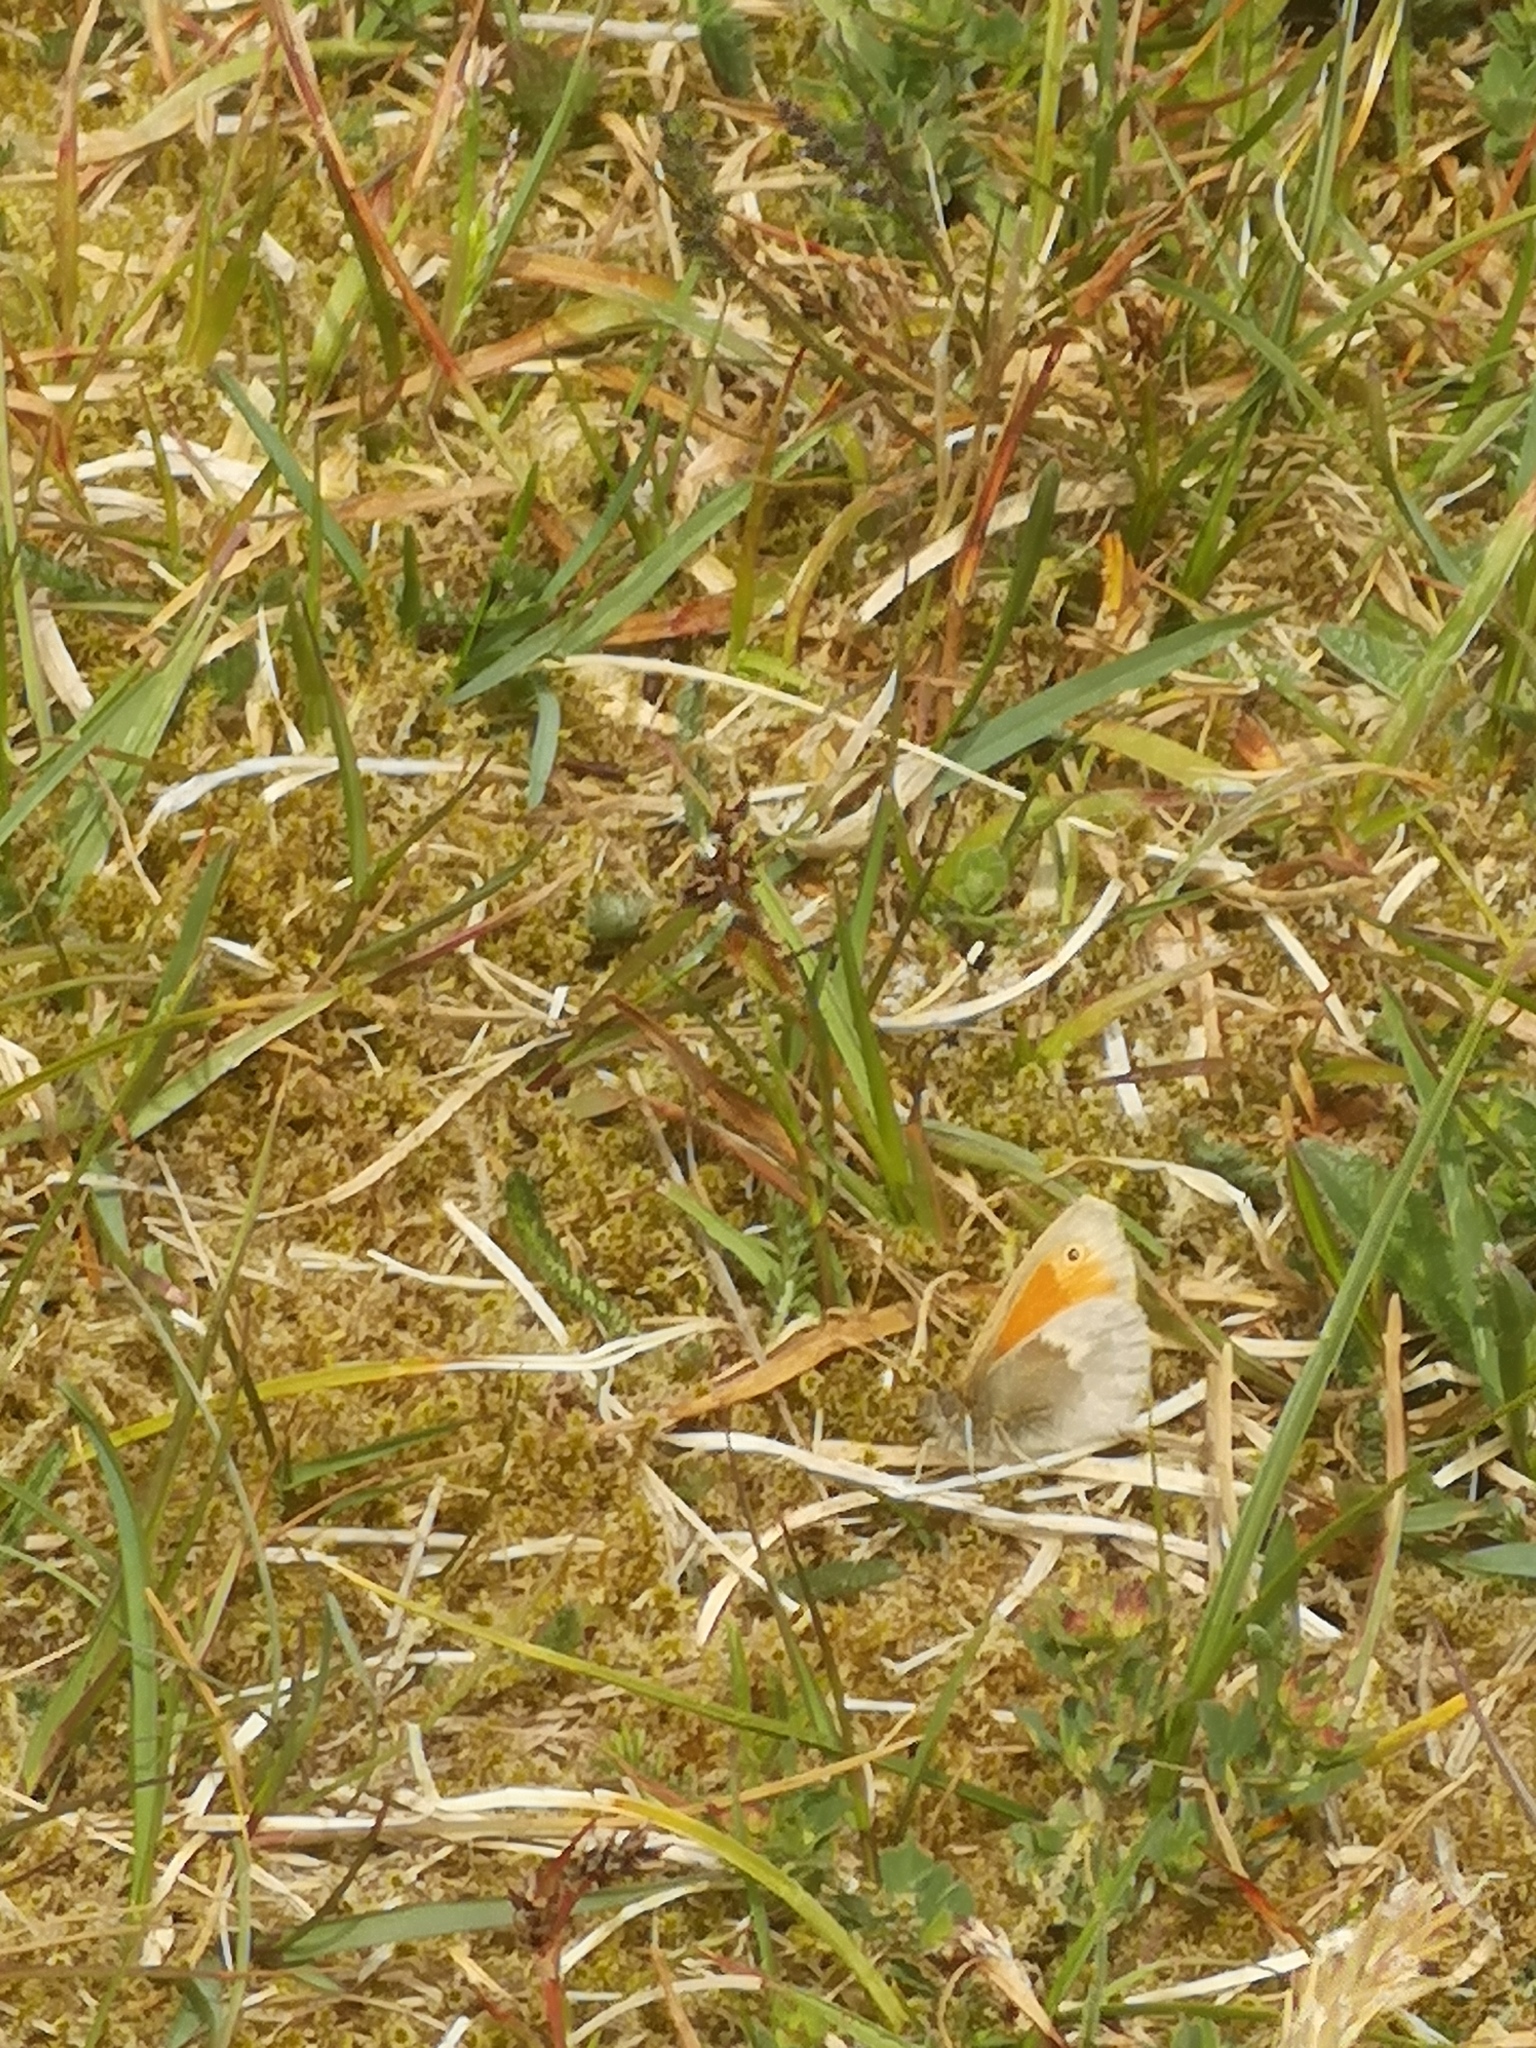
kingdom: Animalia
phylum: Arthropoda
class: Insecta
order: Lepidoptera
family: Nymphalidae
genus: Coenonympha
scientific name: Coenonympha pamphilus
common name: Small heath
